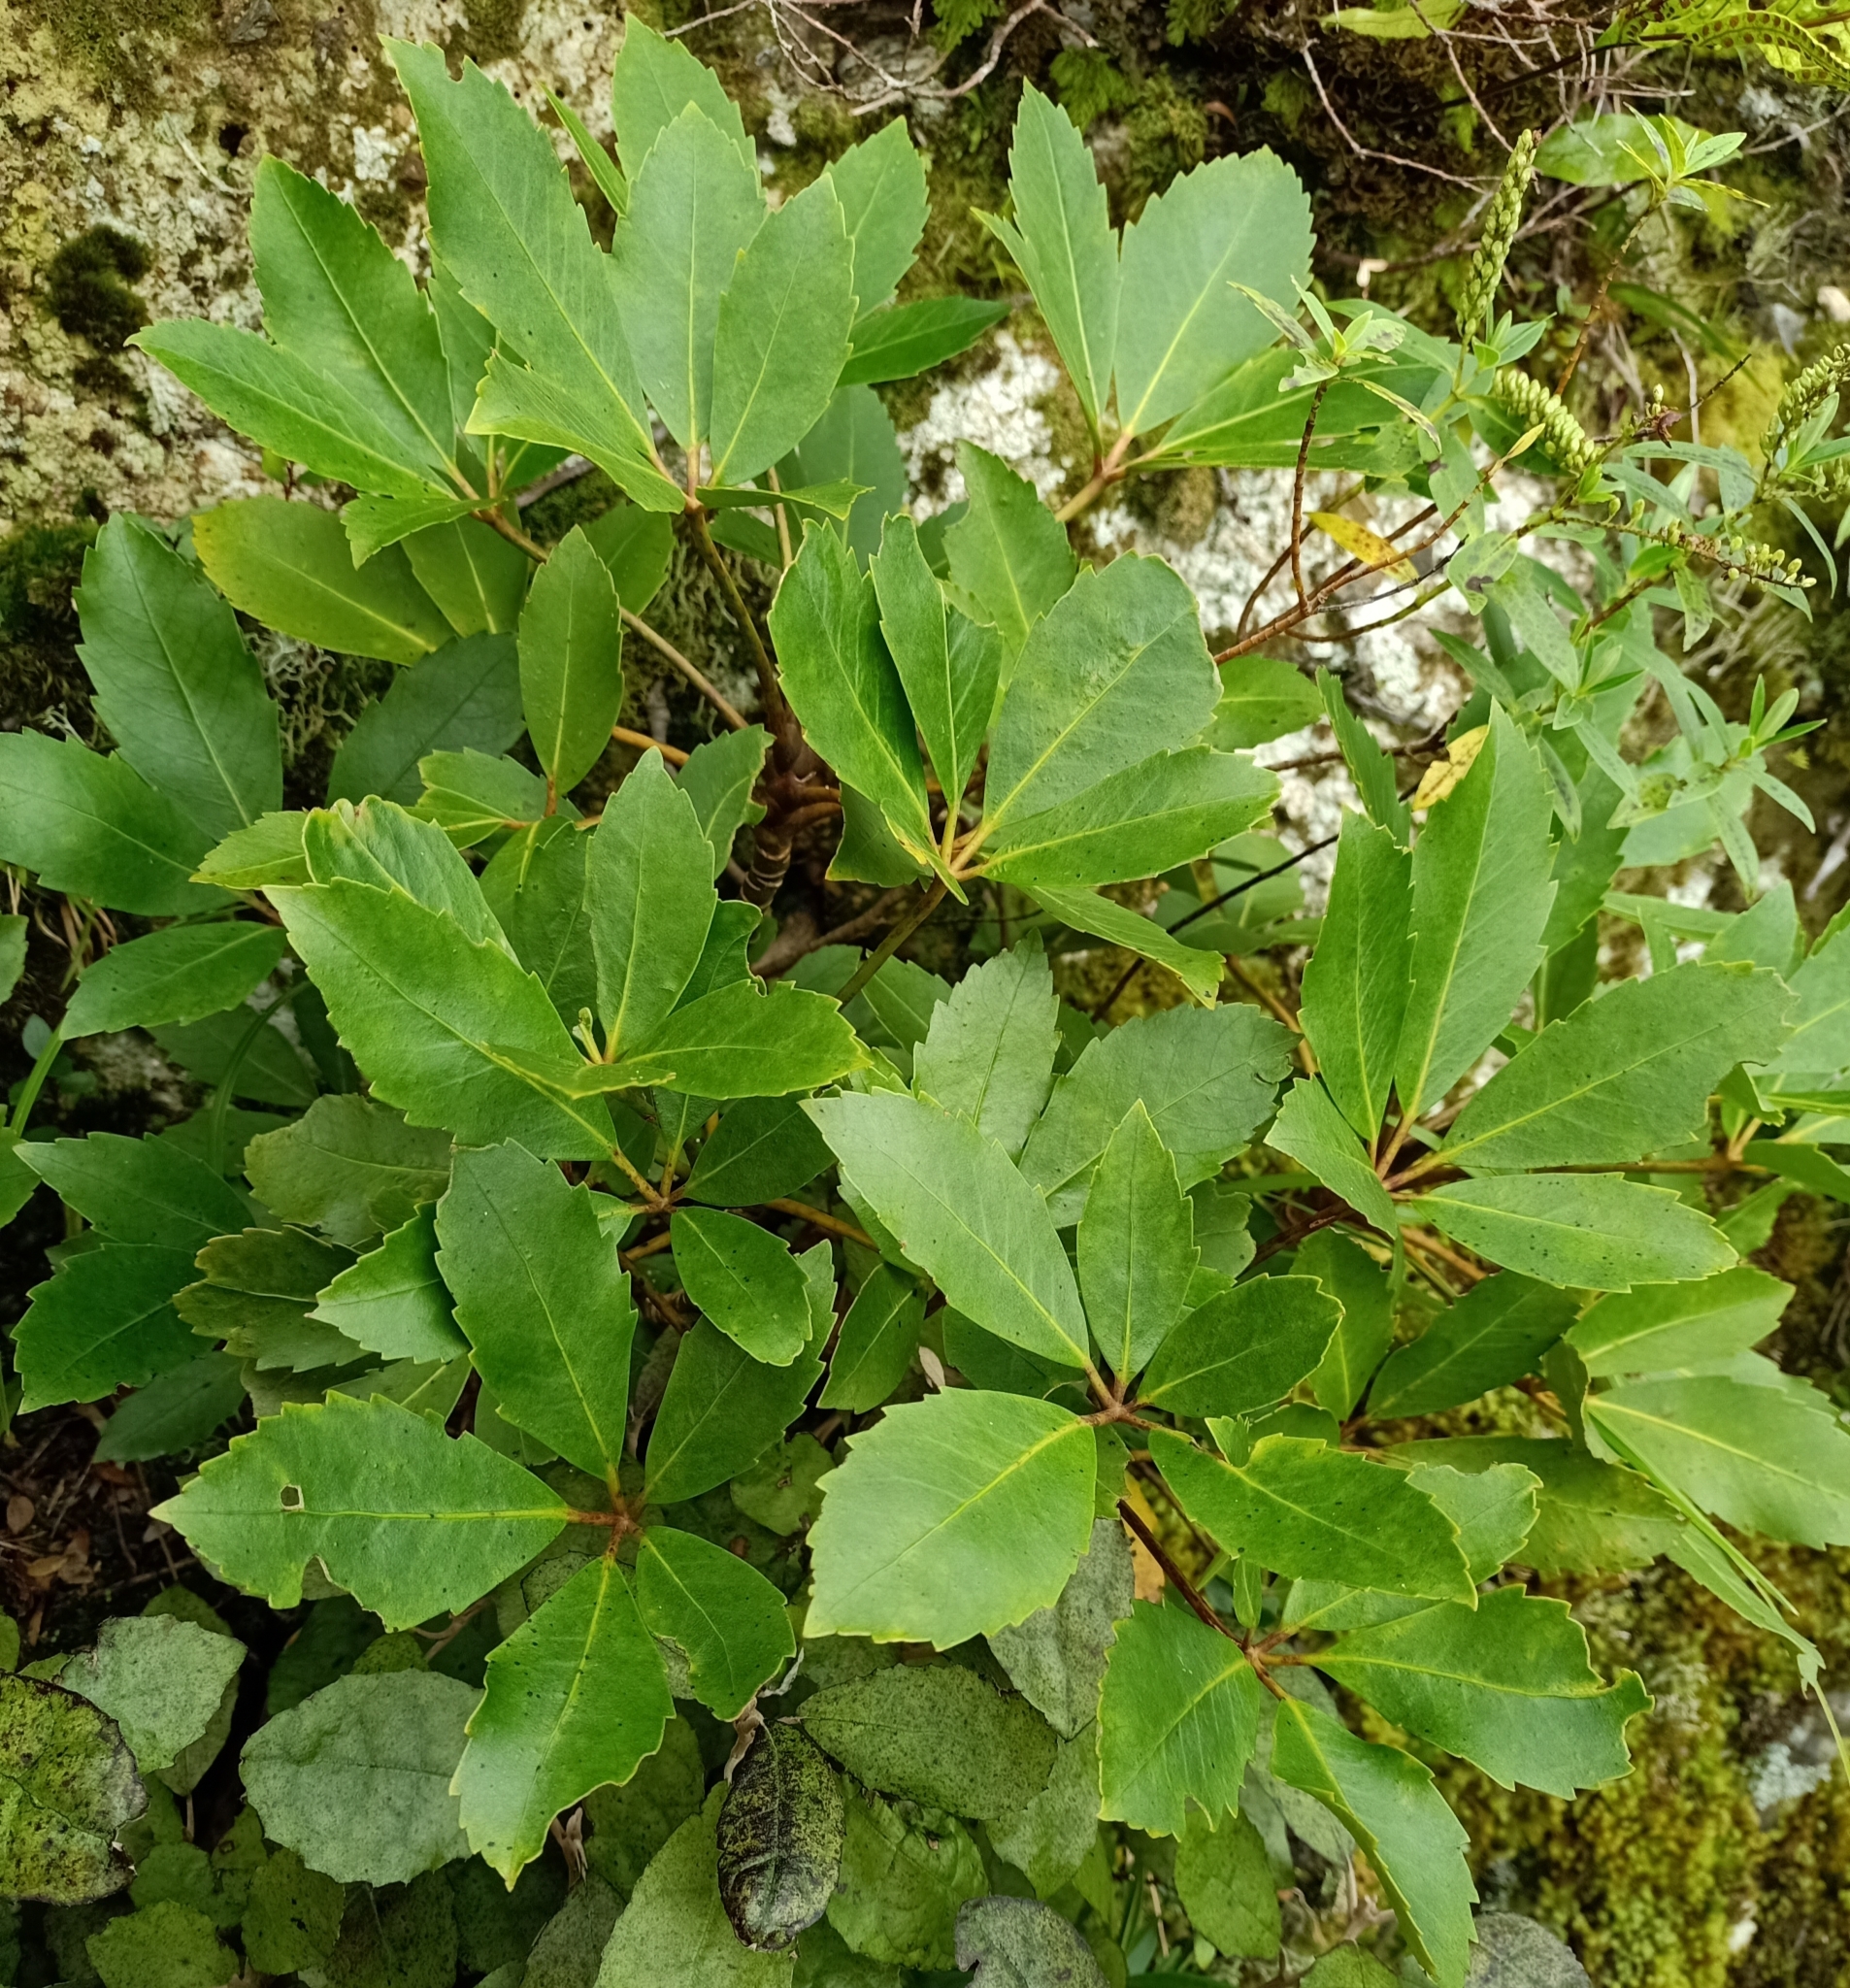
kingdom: Plantae
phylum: Tracheophyta
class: Magnoliopsida
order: Apiales
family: Araliaceae
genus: Neopanax
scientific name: Neopanax arboreus
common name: Five-fingers
